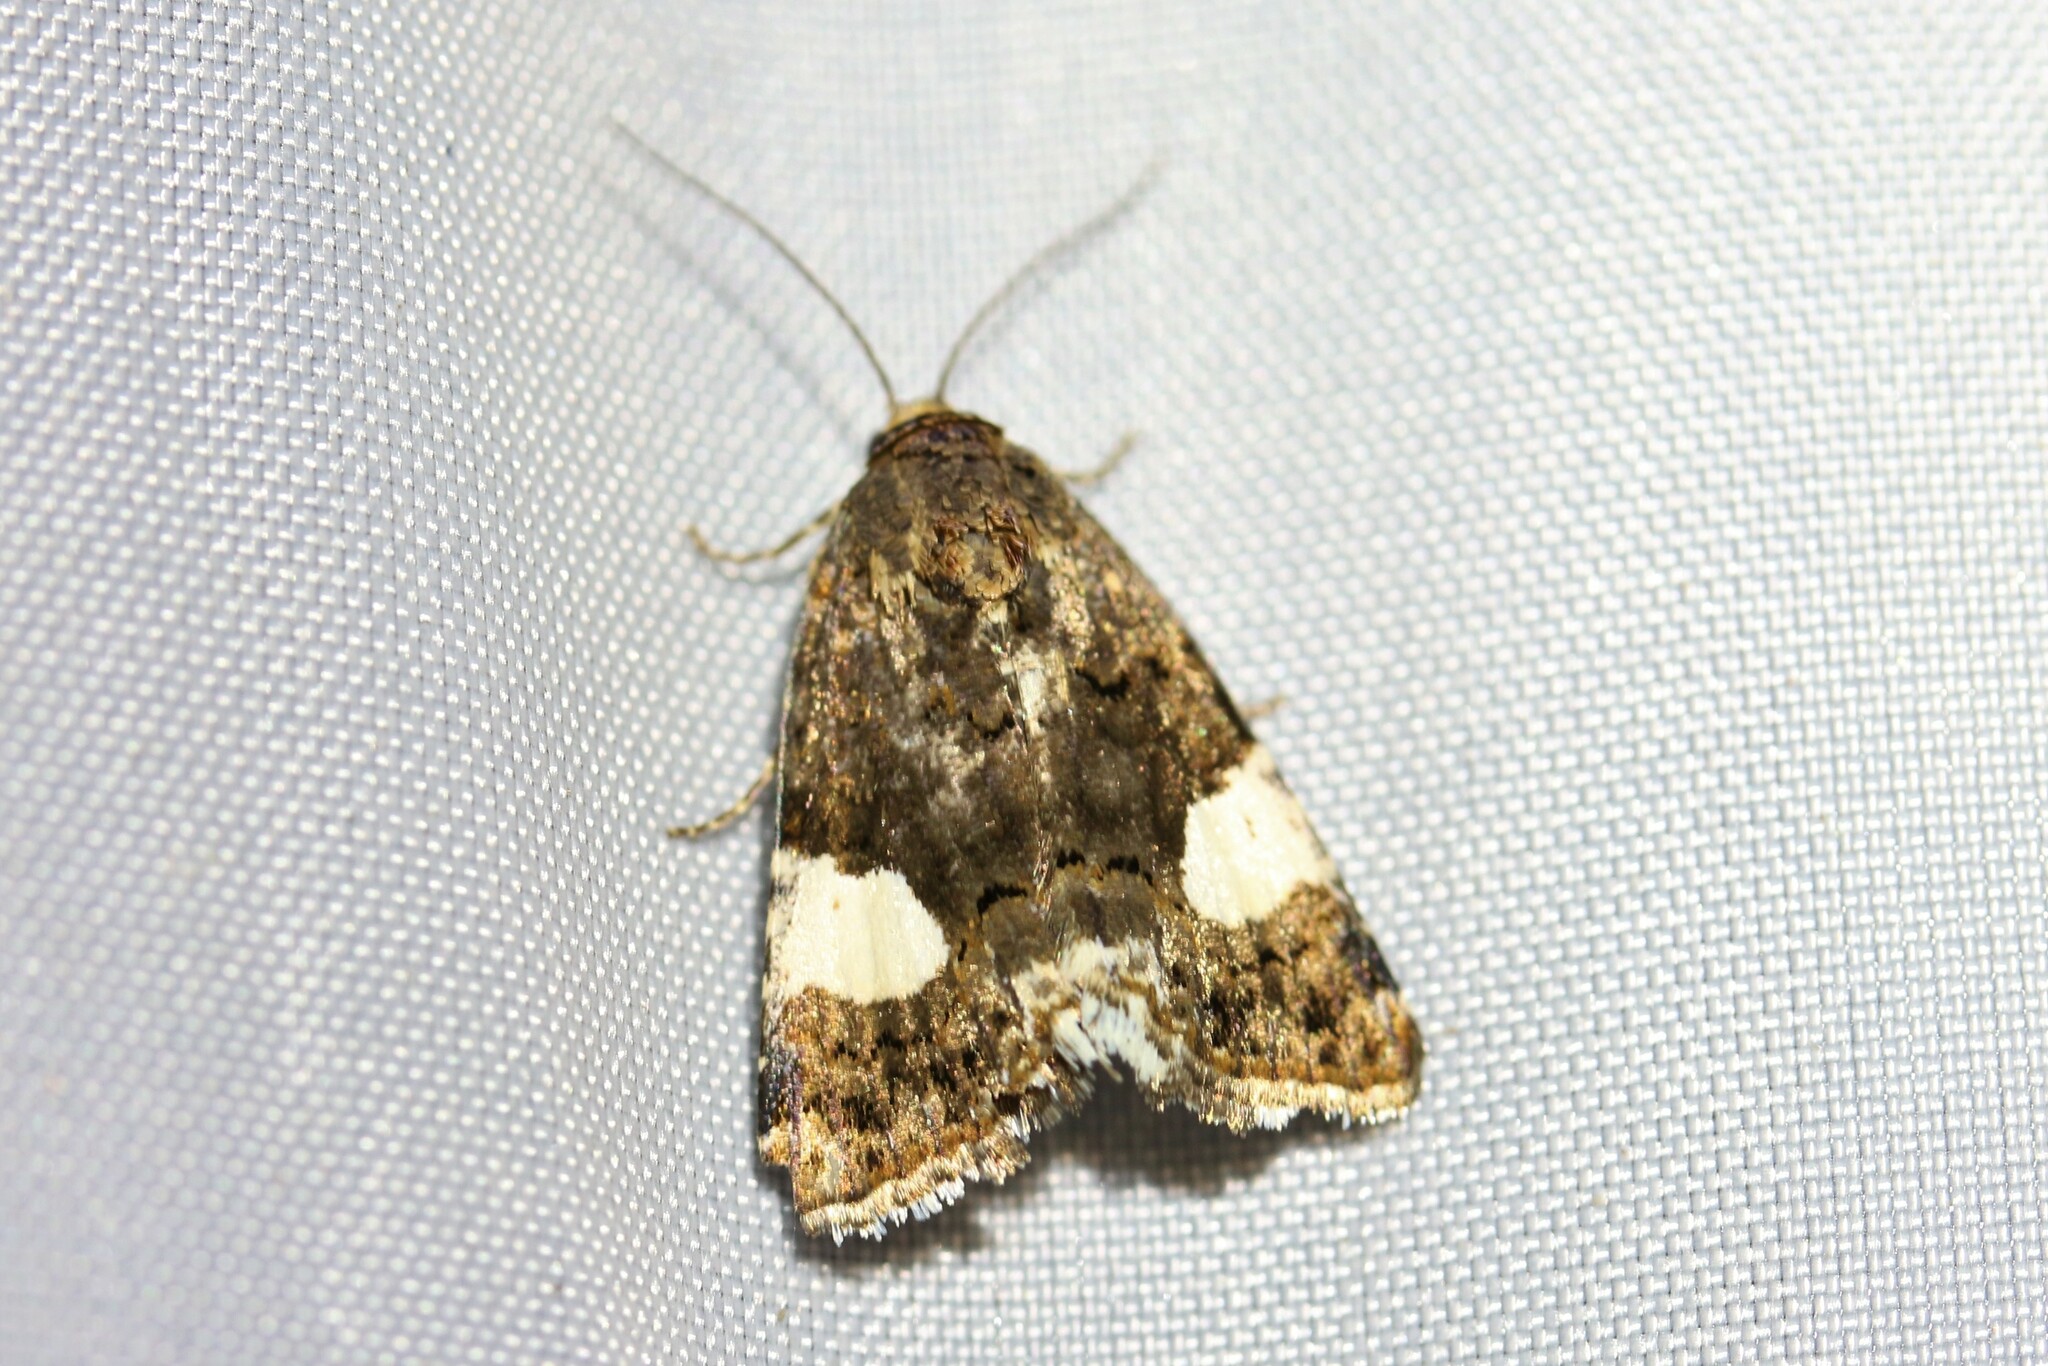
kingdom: Animalia
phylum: Arthropoda
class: Insecta
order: Lepidoptera
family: Erebidae
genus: Tyta
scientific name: Tyta luctuosa
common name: Four-spotted
